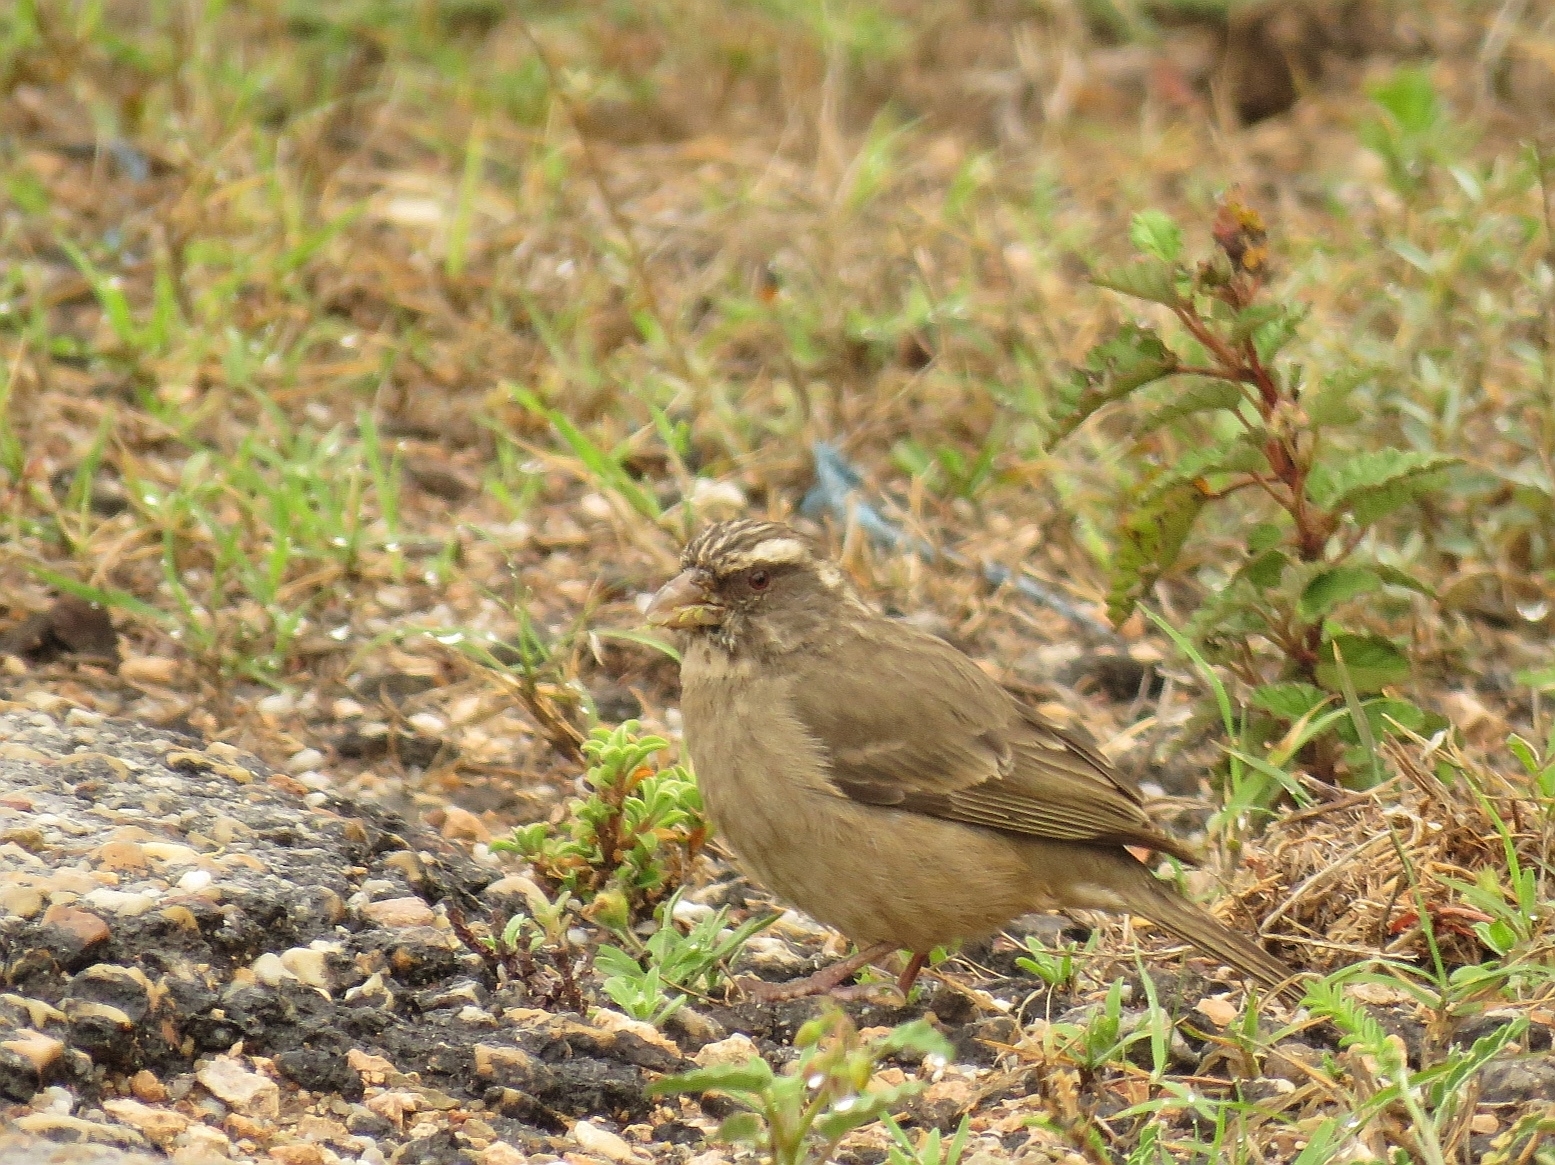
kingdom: Animalia
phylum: Chordata
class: Aves
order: Passeriformes
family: Fringillidae
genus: Crithagra
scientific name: Crithagra gularis
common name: Streaky-headed seedeater
